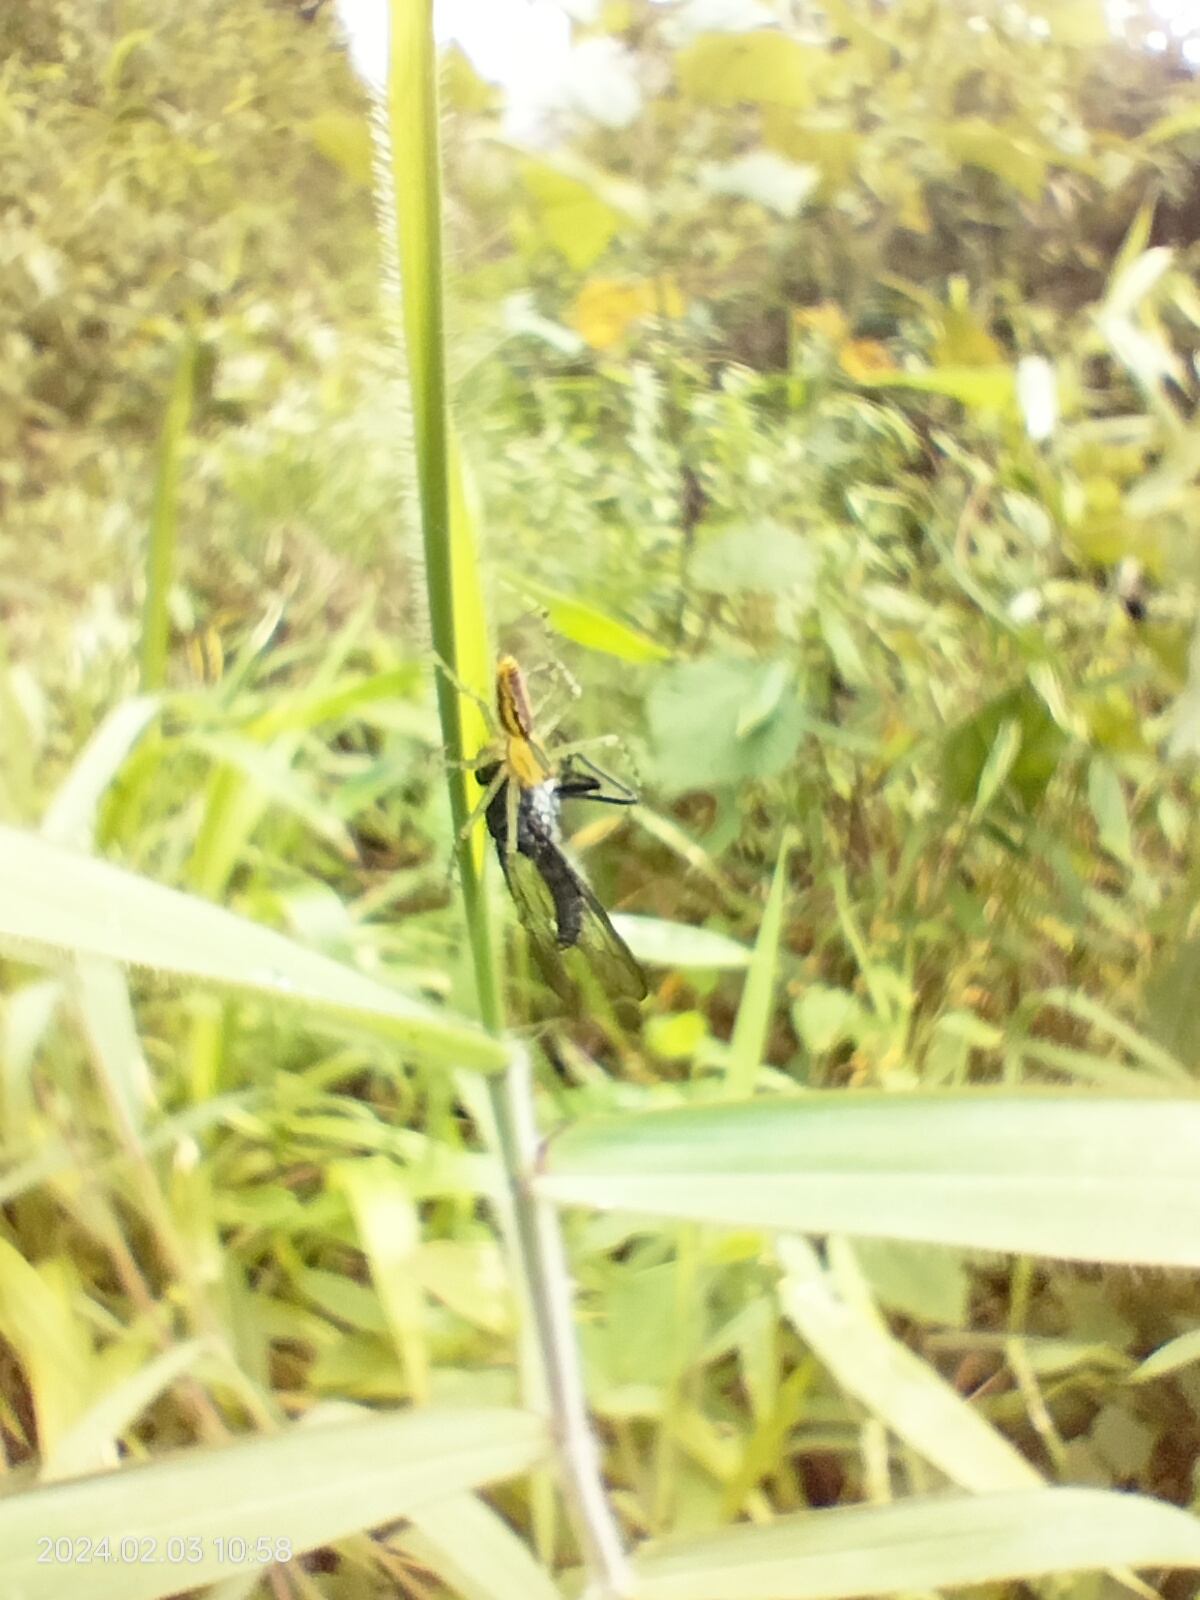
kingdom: Animalia
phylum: Arthropoda
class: Arachnida
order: Araneae
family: Oxyopidae
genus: Peucetia
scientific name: Peucetia rubrolineata
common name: Lynx spiders
